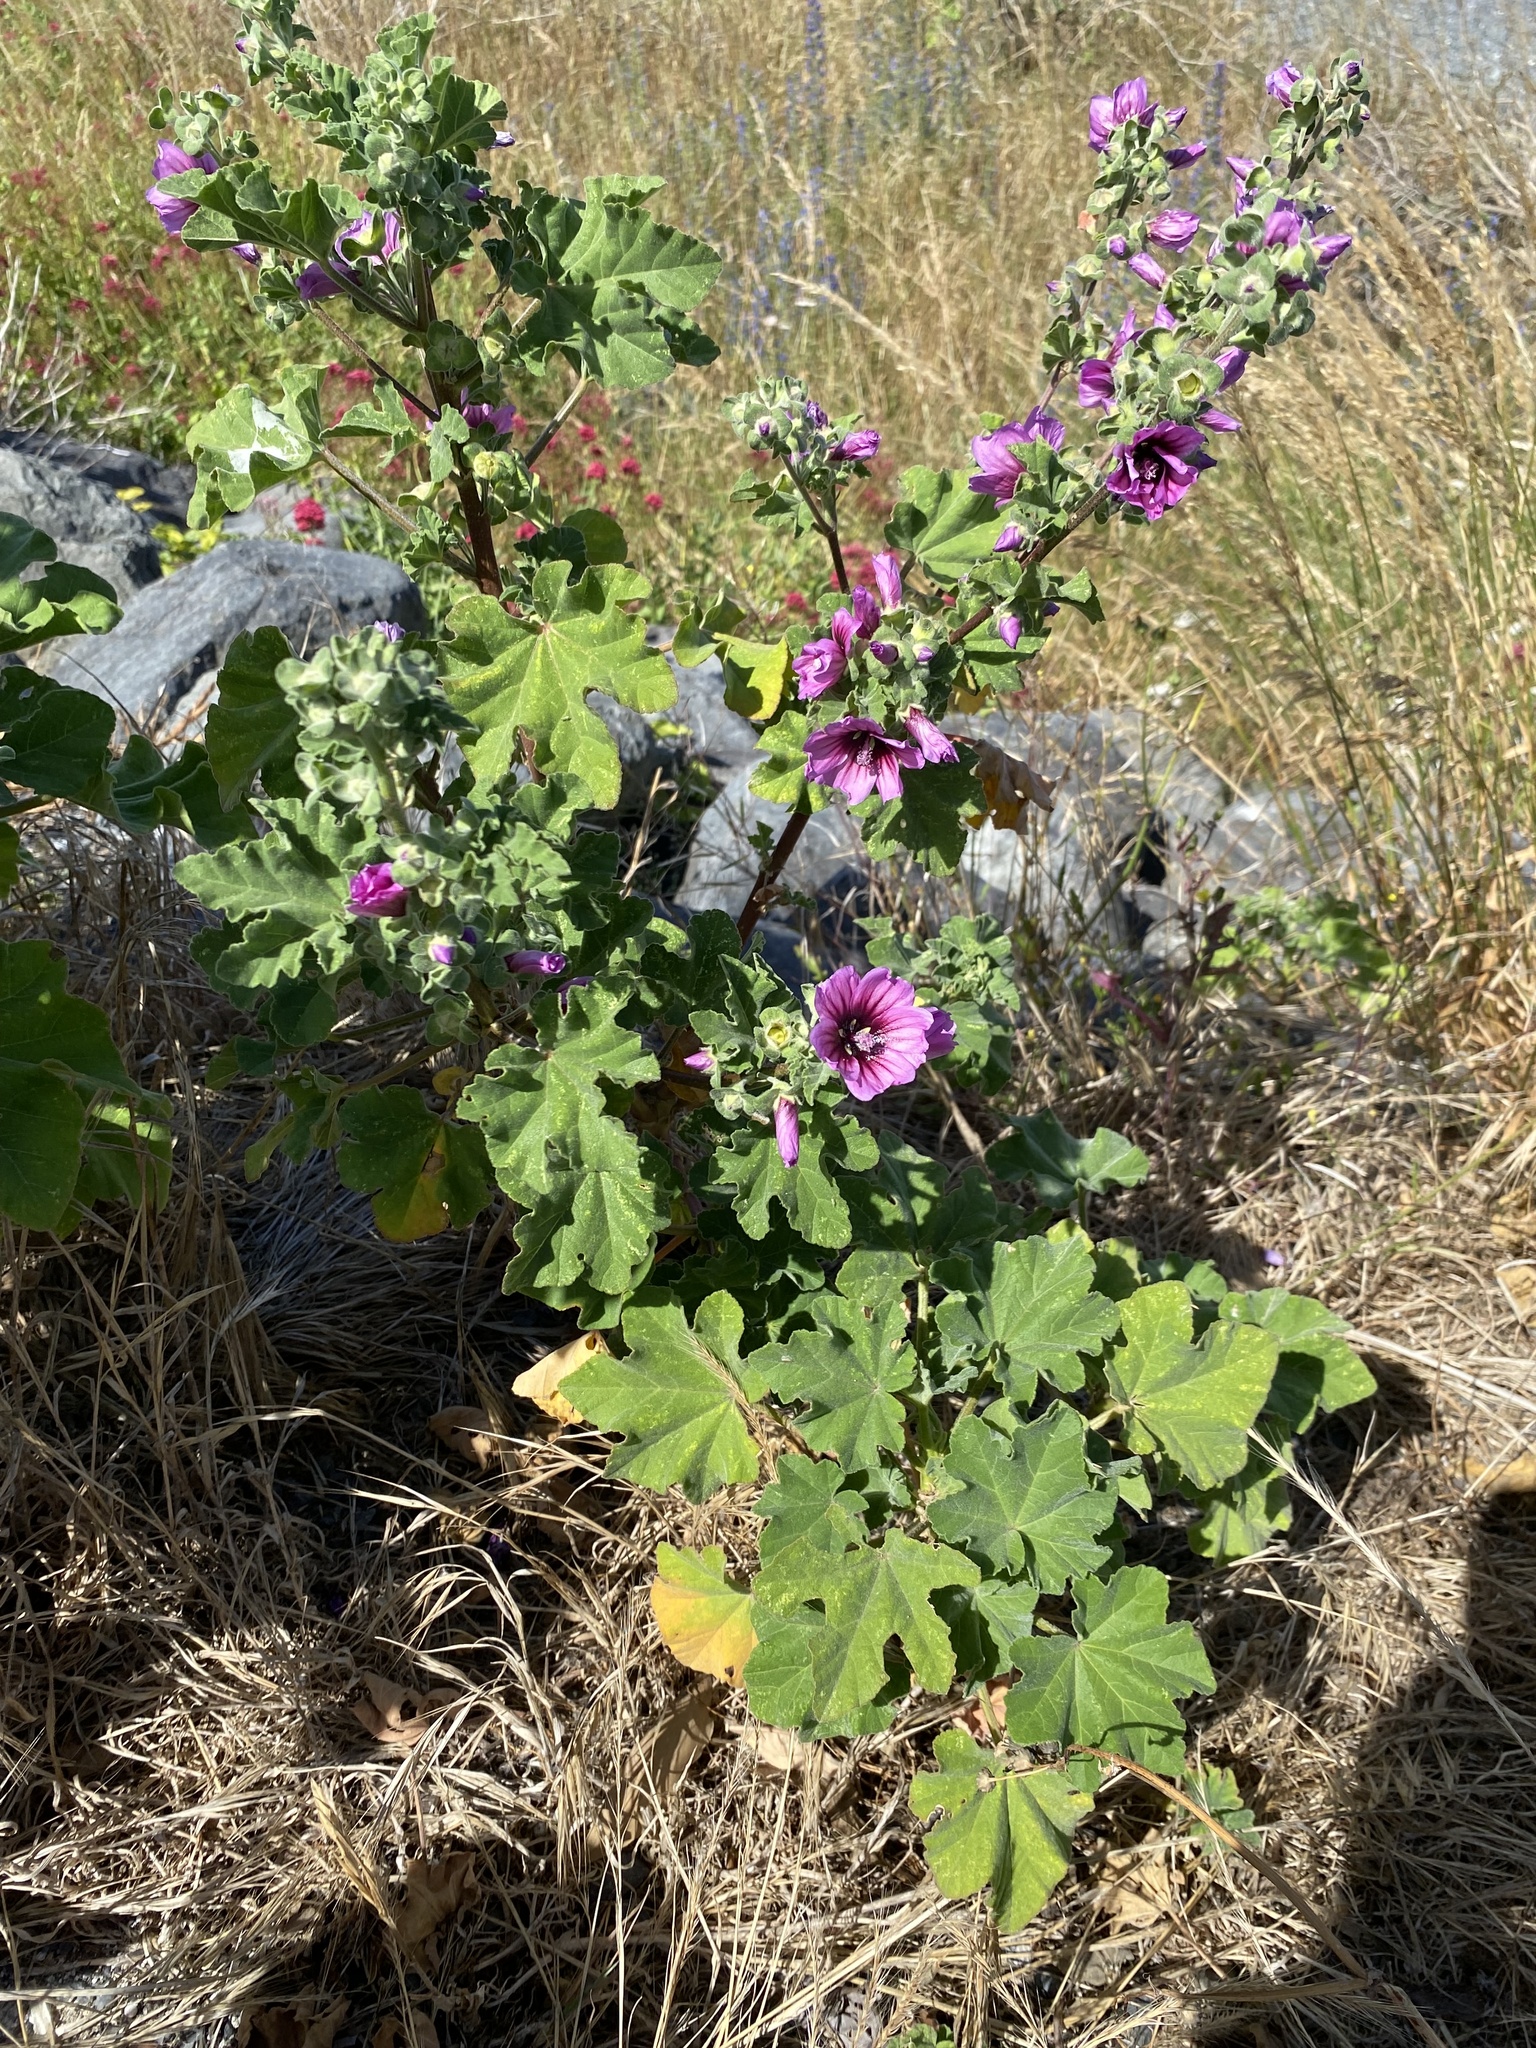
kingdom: Plantae
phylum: Tracheophyta
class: Magnoliopsida
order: Malvales
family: Malvaceae
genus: Malva
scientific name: Malva arborea
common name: Tree mallow
